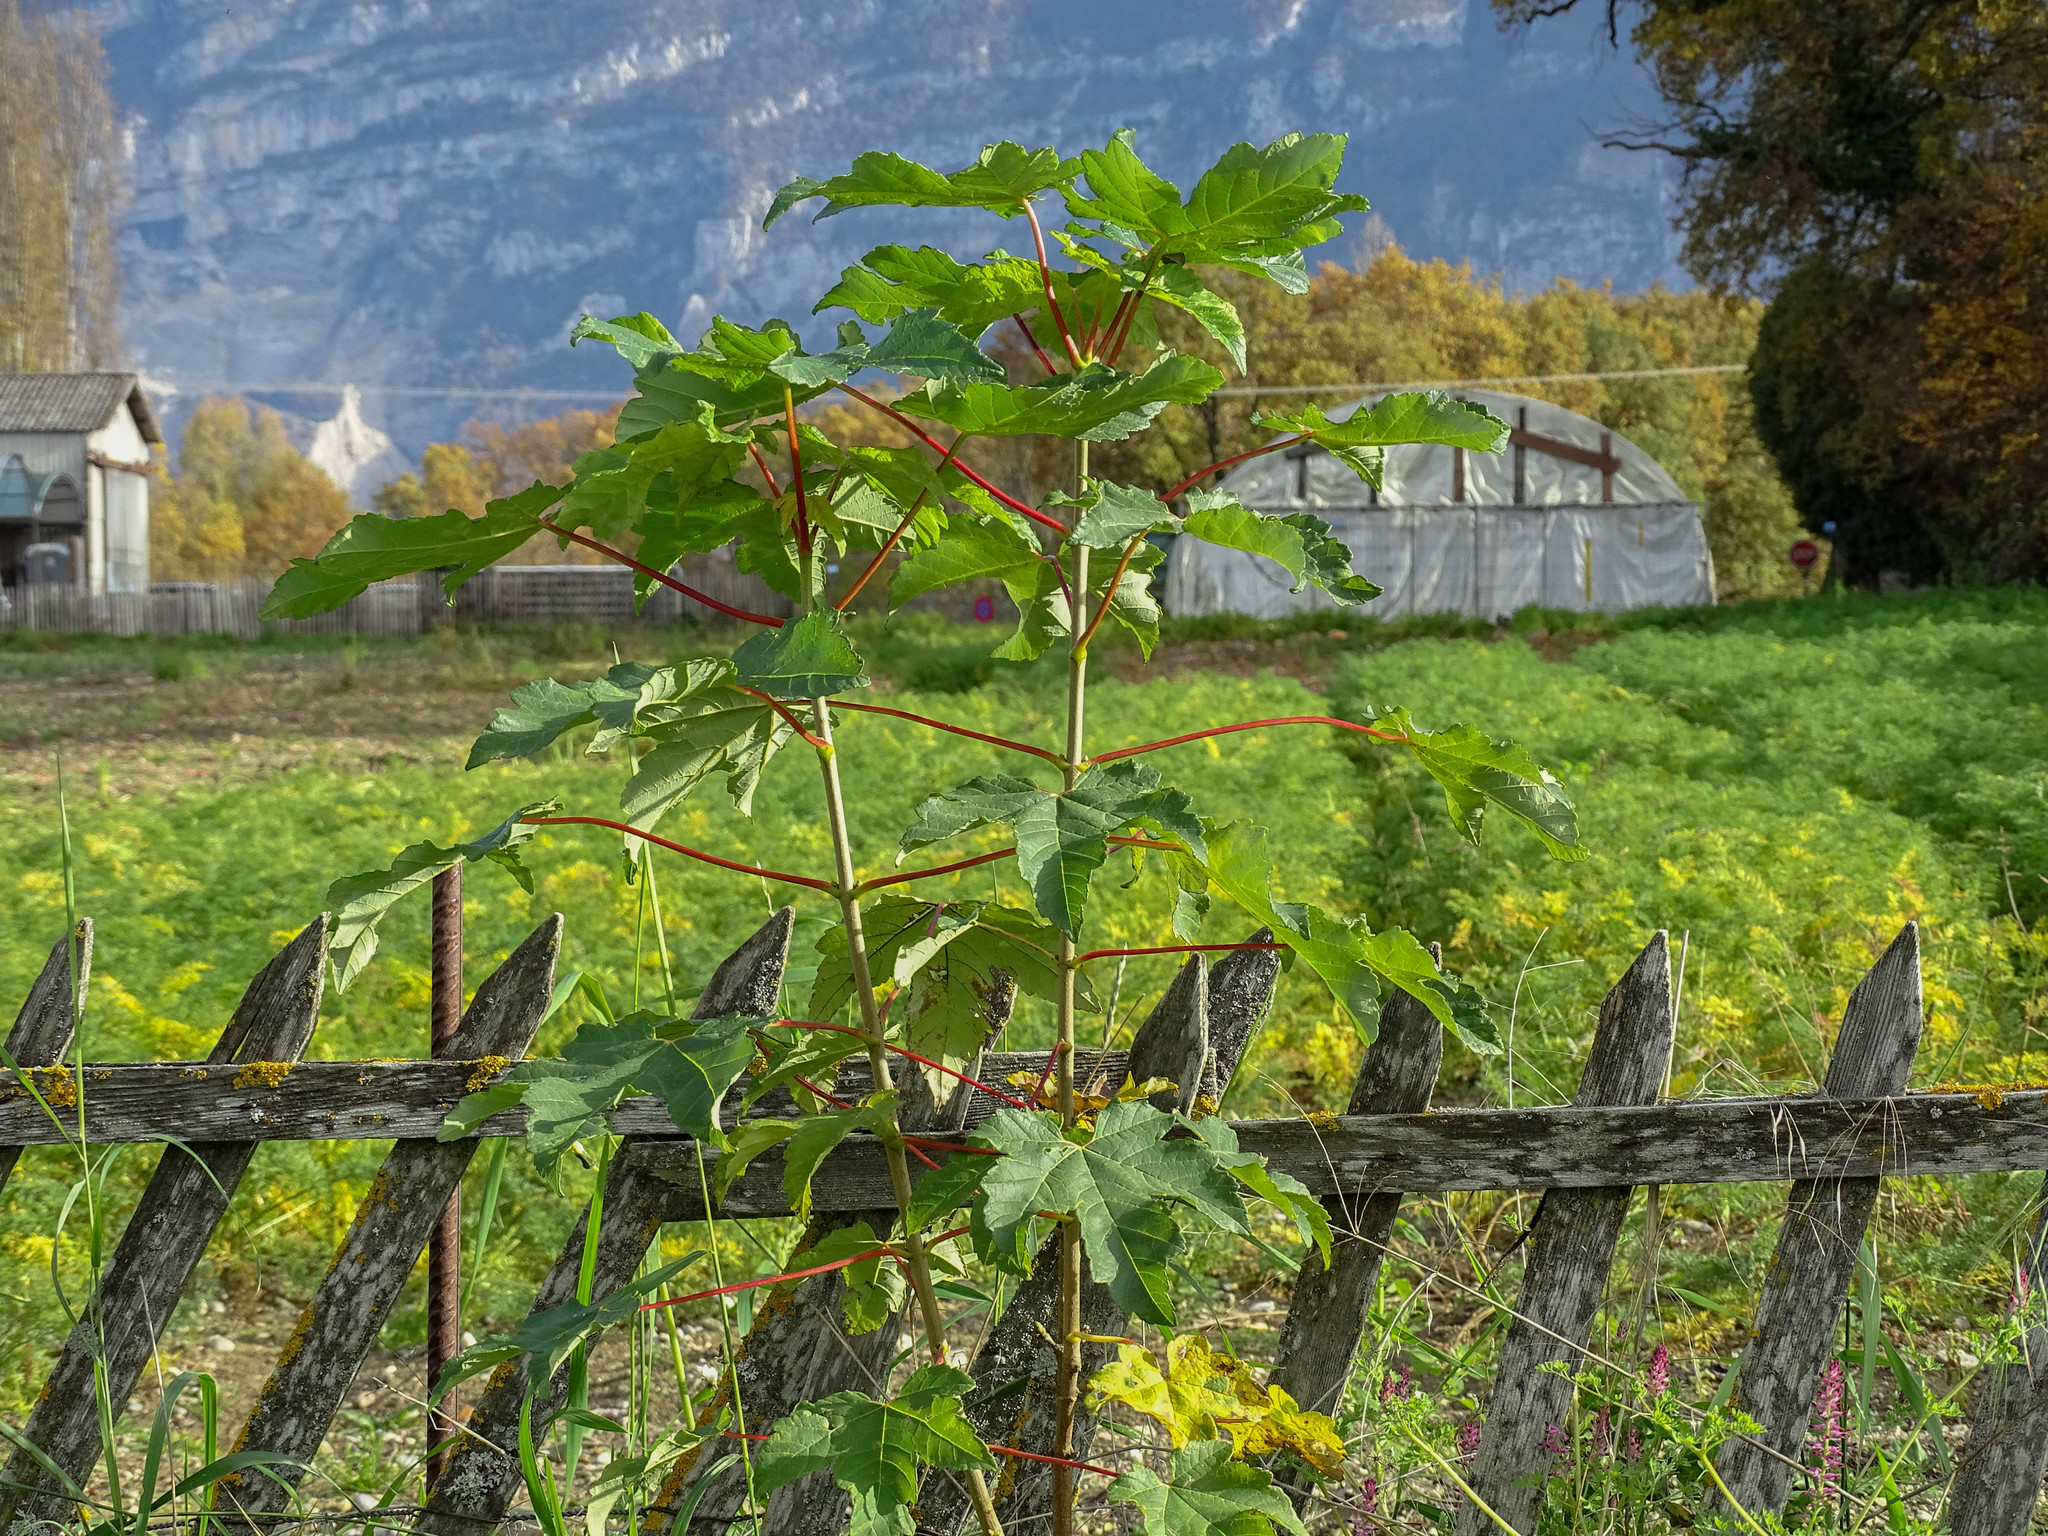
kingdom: Plantae
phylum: Tracheophyta
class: Magnoliopsida
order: Sapindales
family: Sapindaceae
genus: Acer
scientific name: Acer pseudoplatanus
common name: Sycamore
